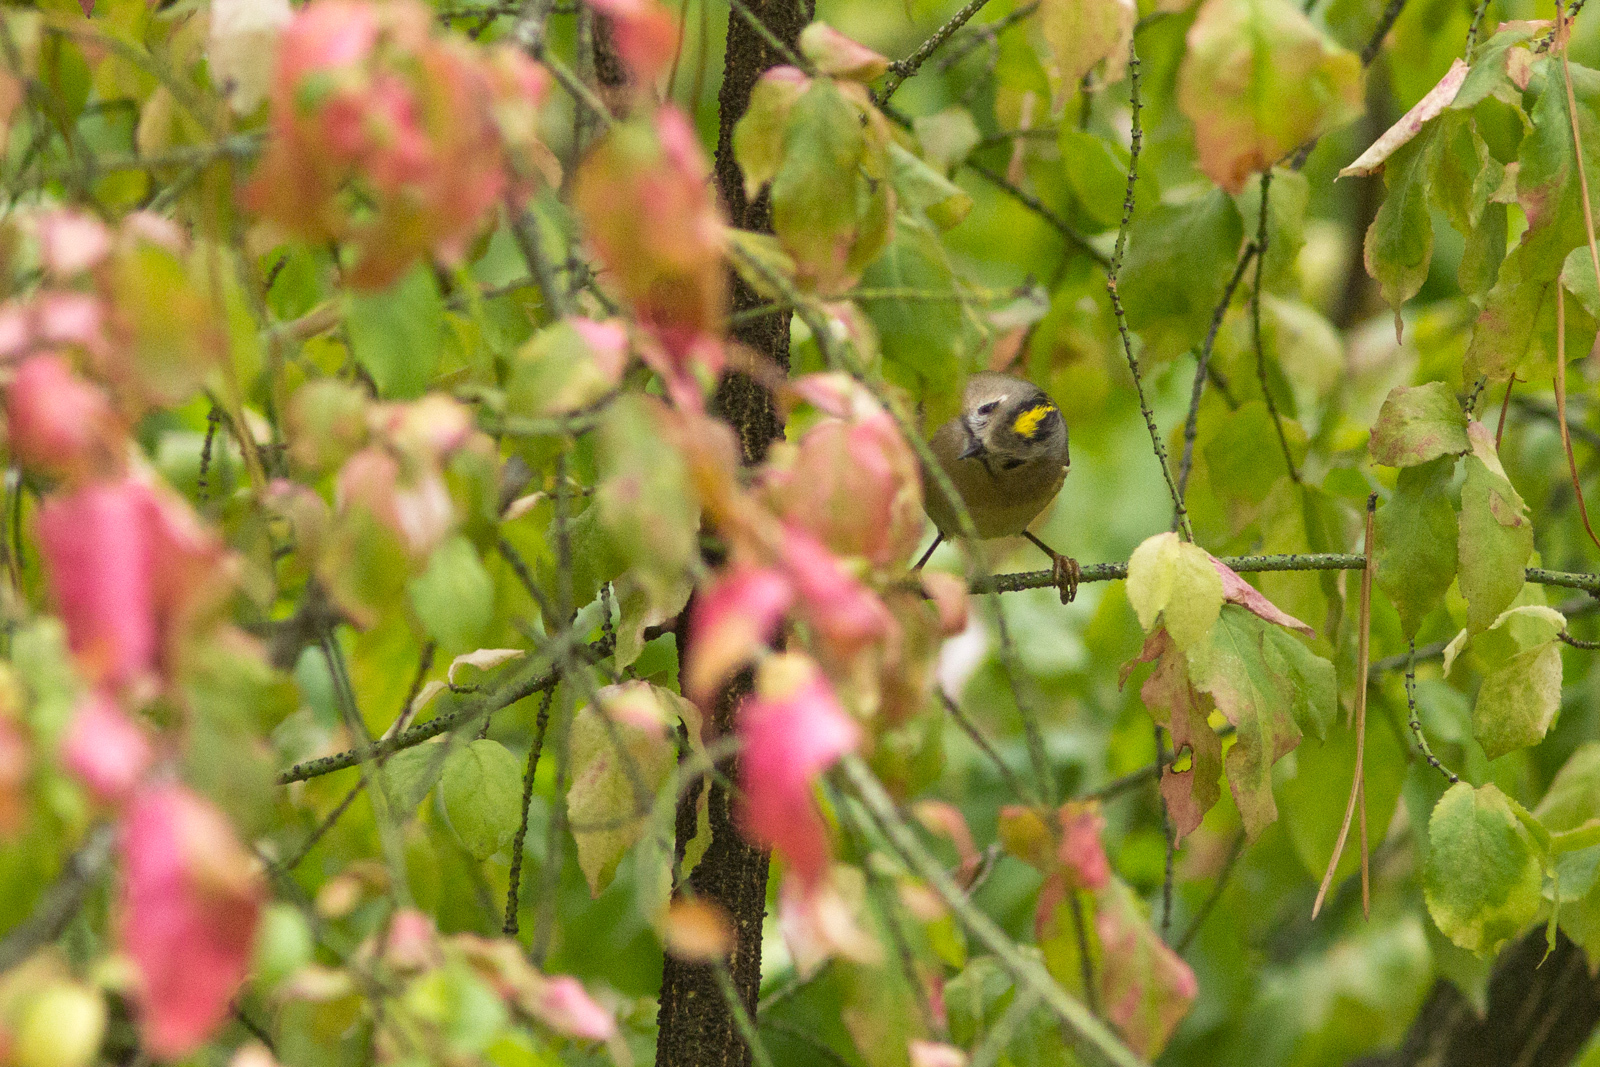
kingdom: Animalia
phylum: Chordata
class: Aves
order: Passeriformes
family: Regulidae
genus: Regulus
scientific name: Regulus regulus
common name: Goldcrest
